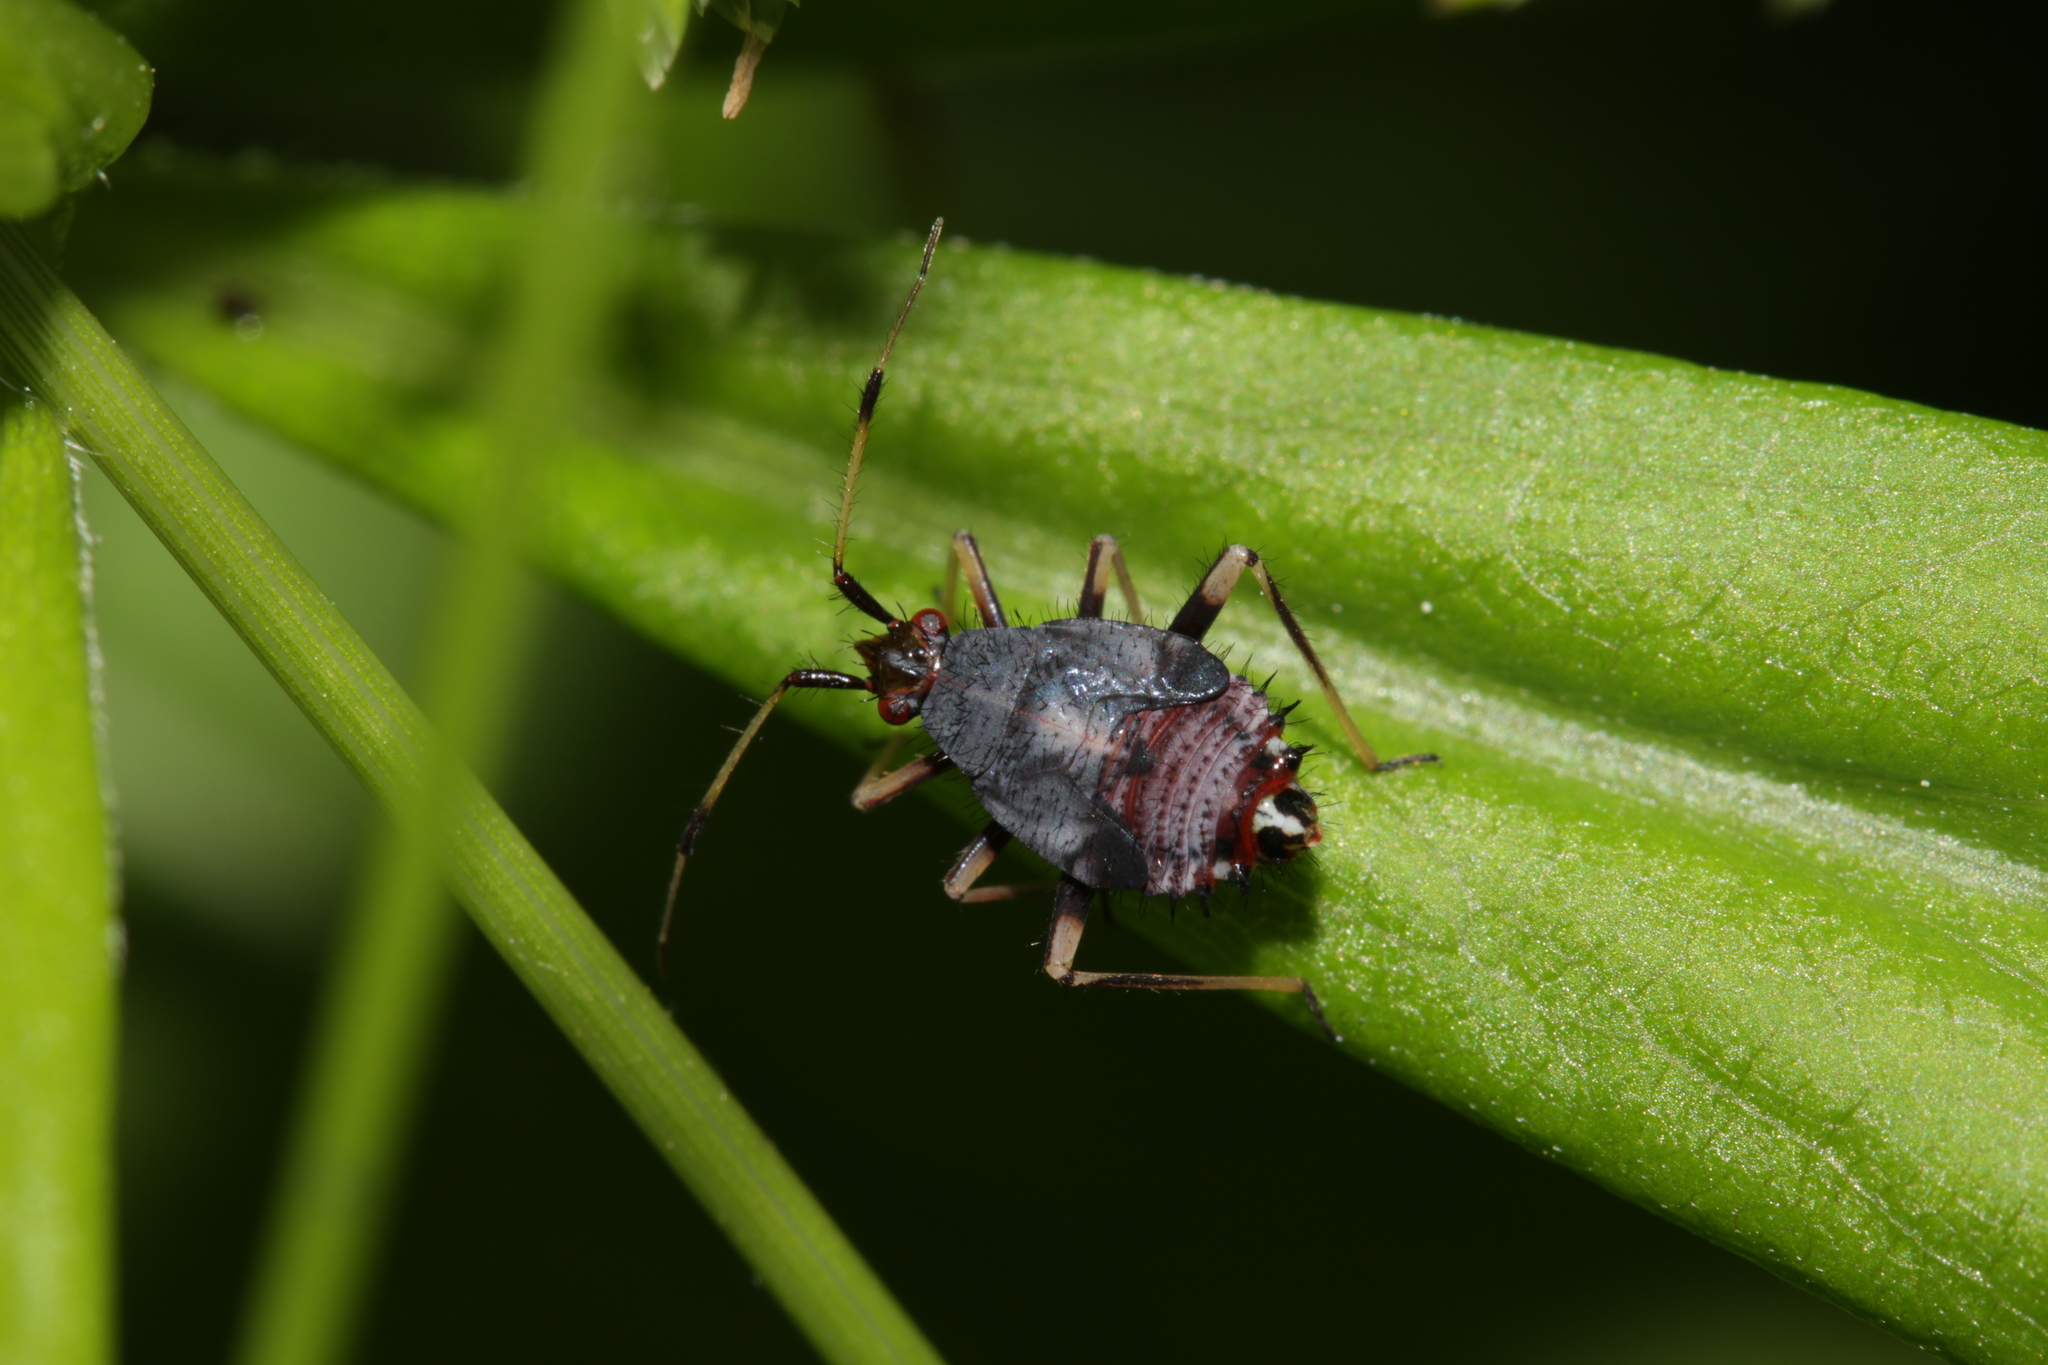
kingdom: Animalia
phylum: Arthropoda
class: Insecta
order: Hemiptera
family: Miridae
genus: Deraeocoris
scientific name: Deraeocoris ruber
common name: Plant bug
